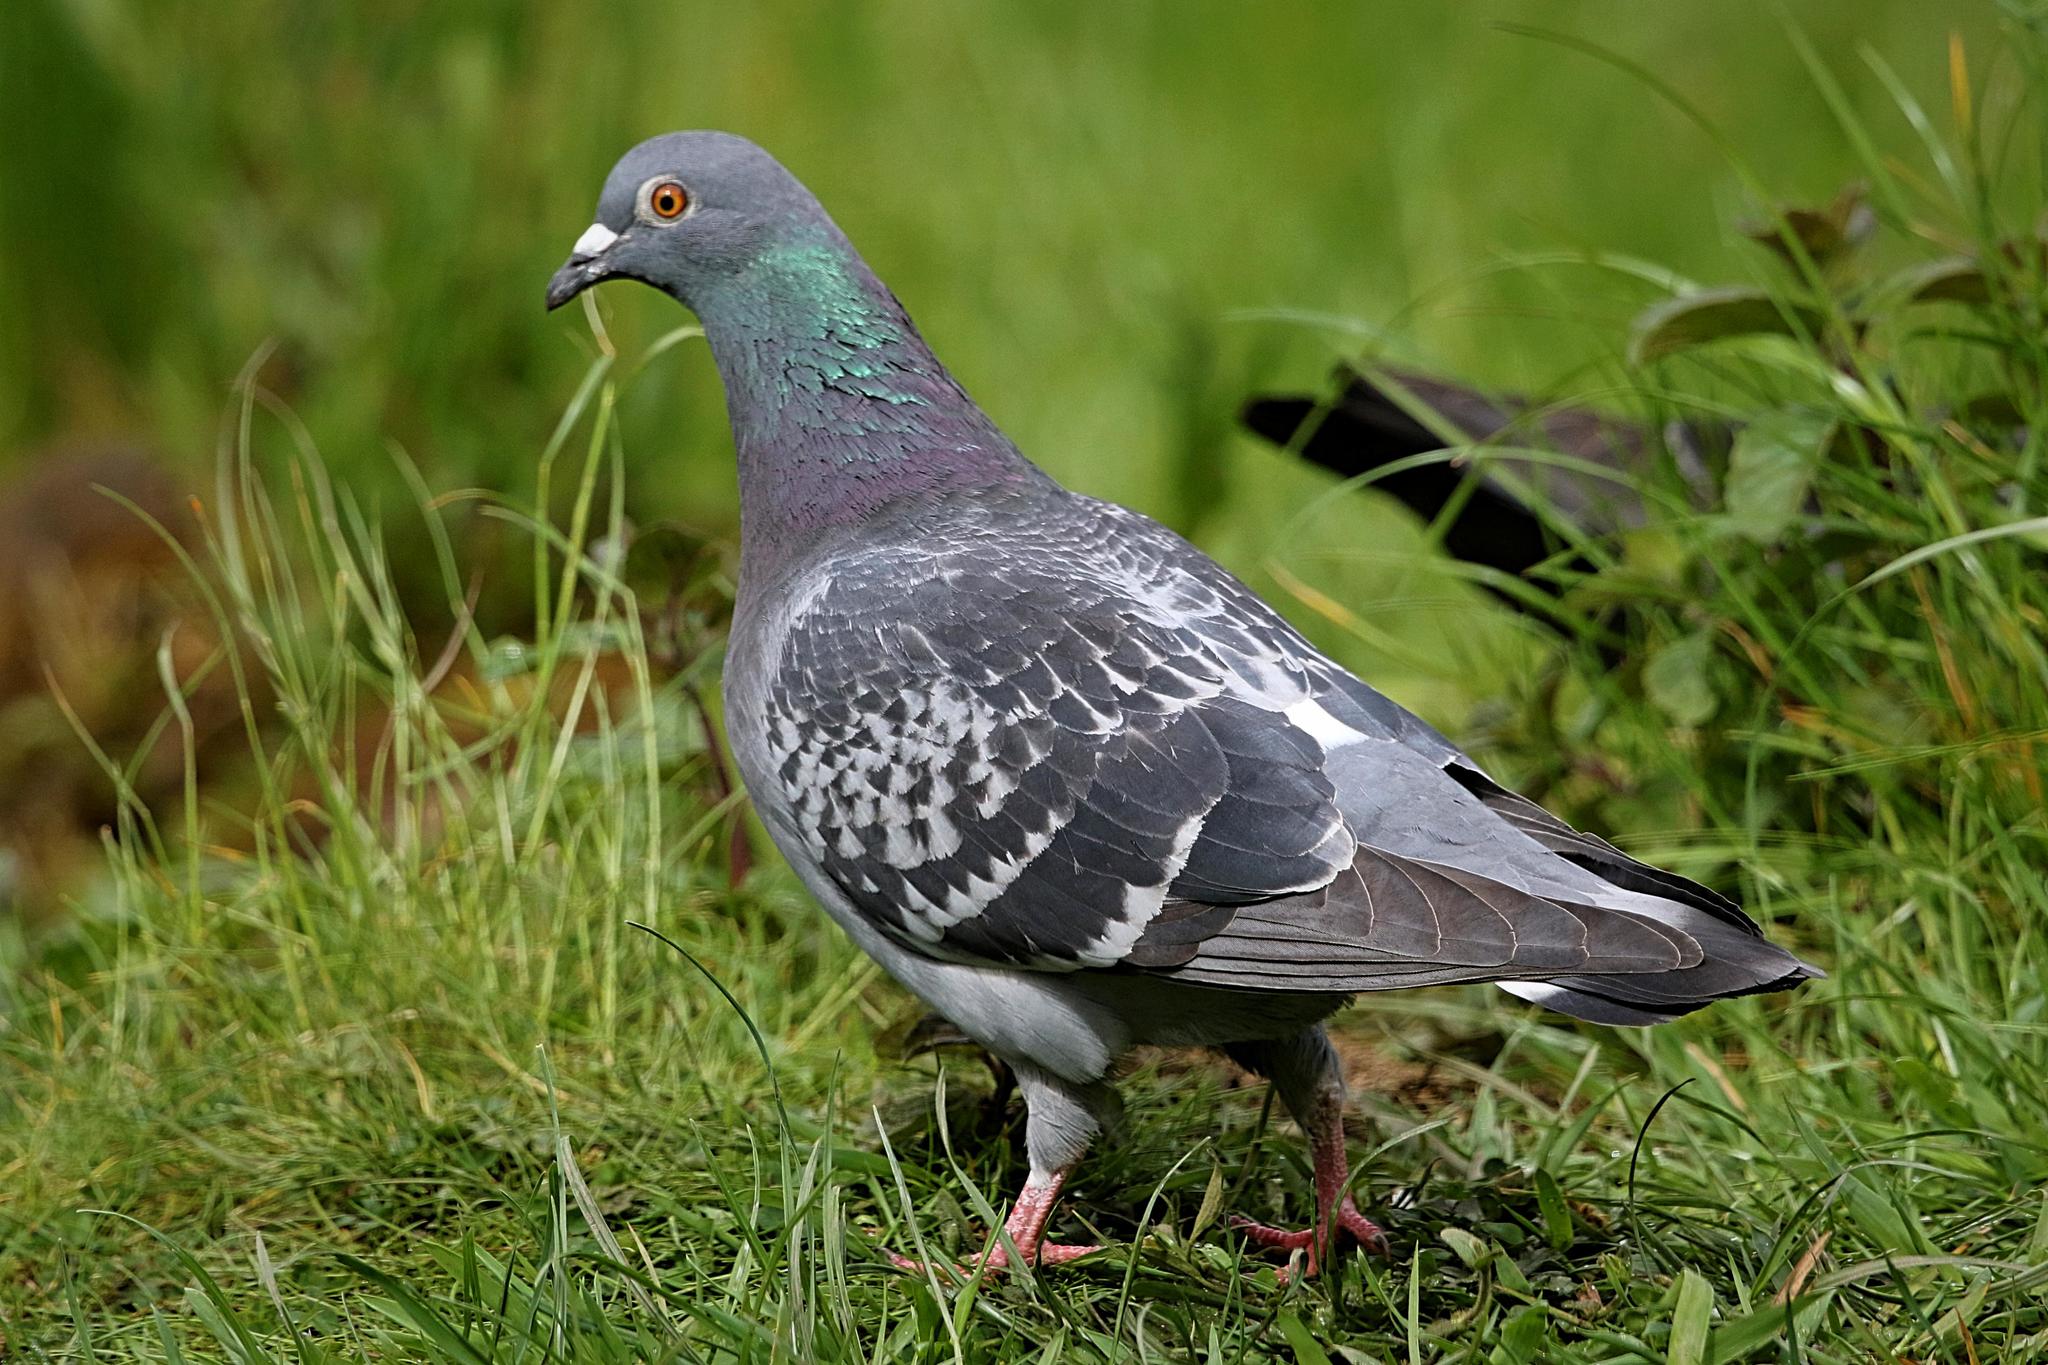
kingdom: Animalia
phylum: Chordata
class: Aves
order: Columbiformes
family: Columbidae
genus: Columba
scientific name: Columba livia
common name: Rock pigeon
